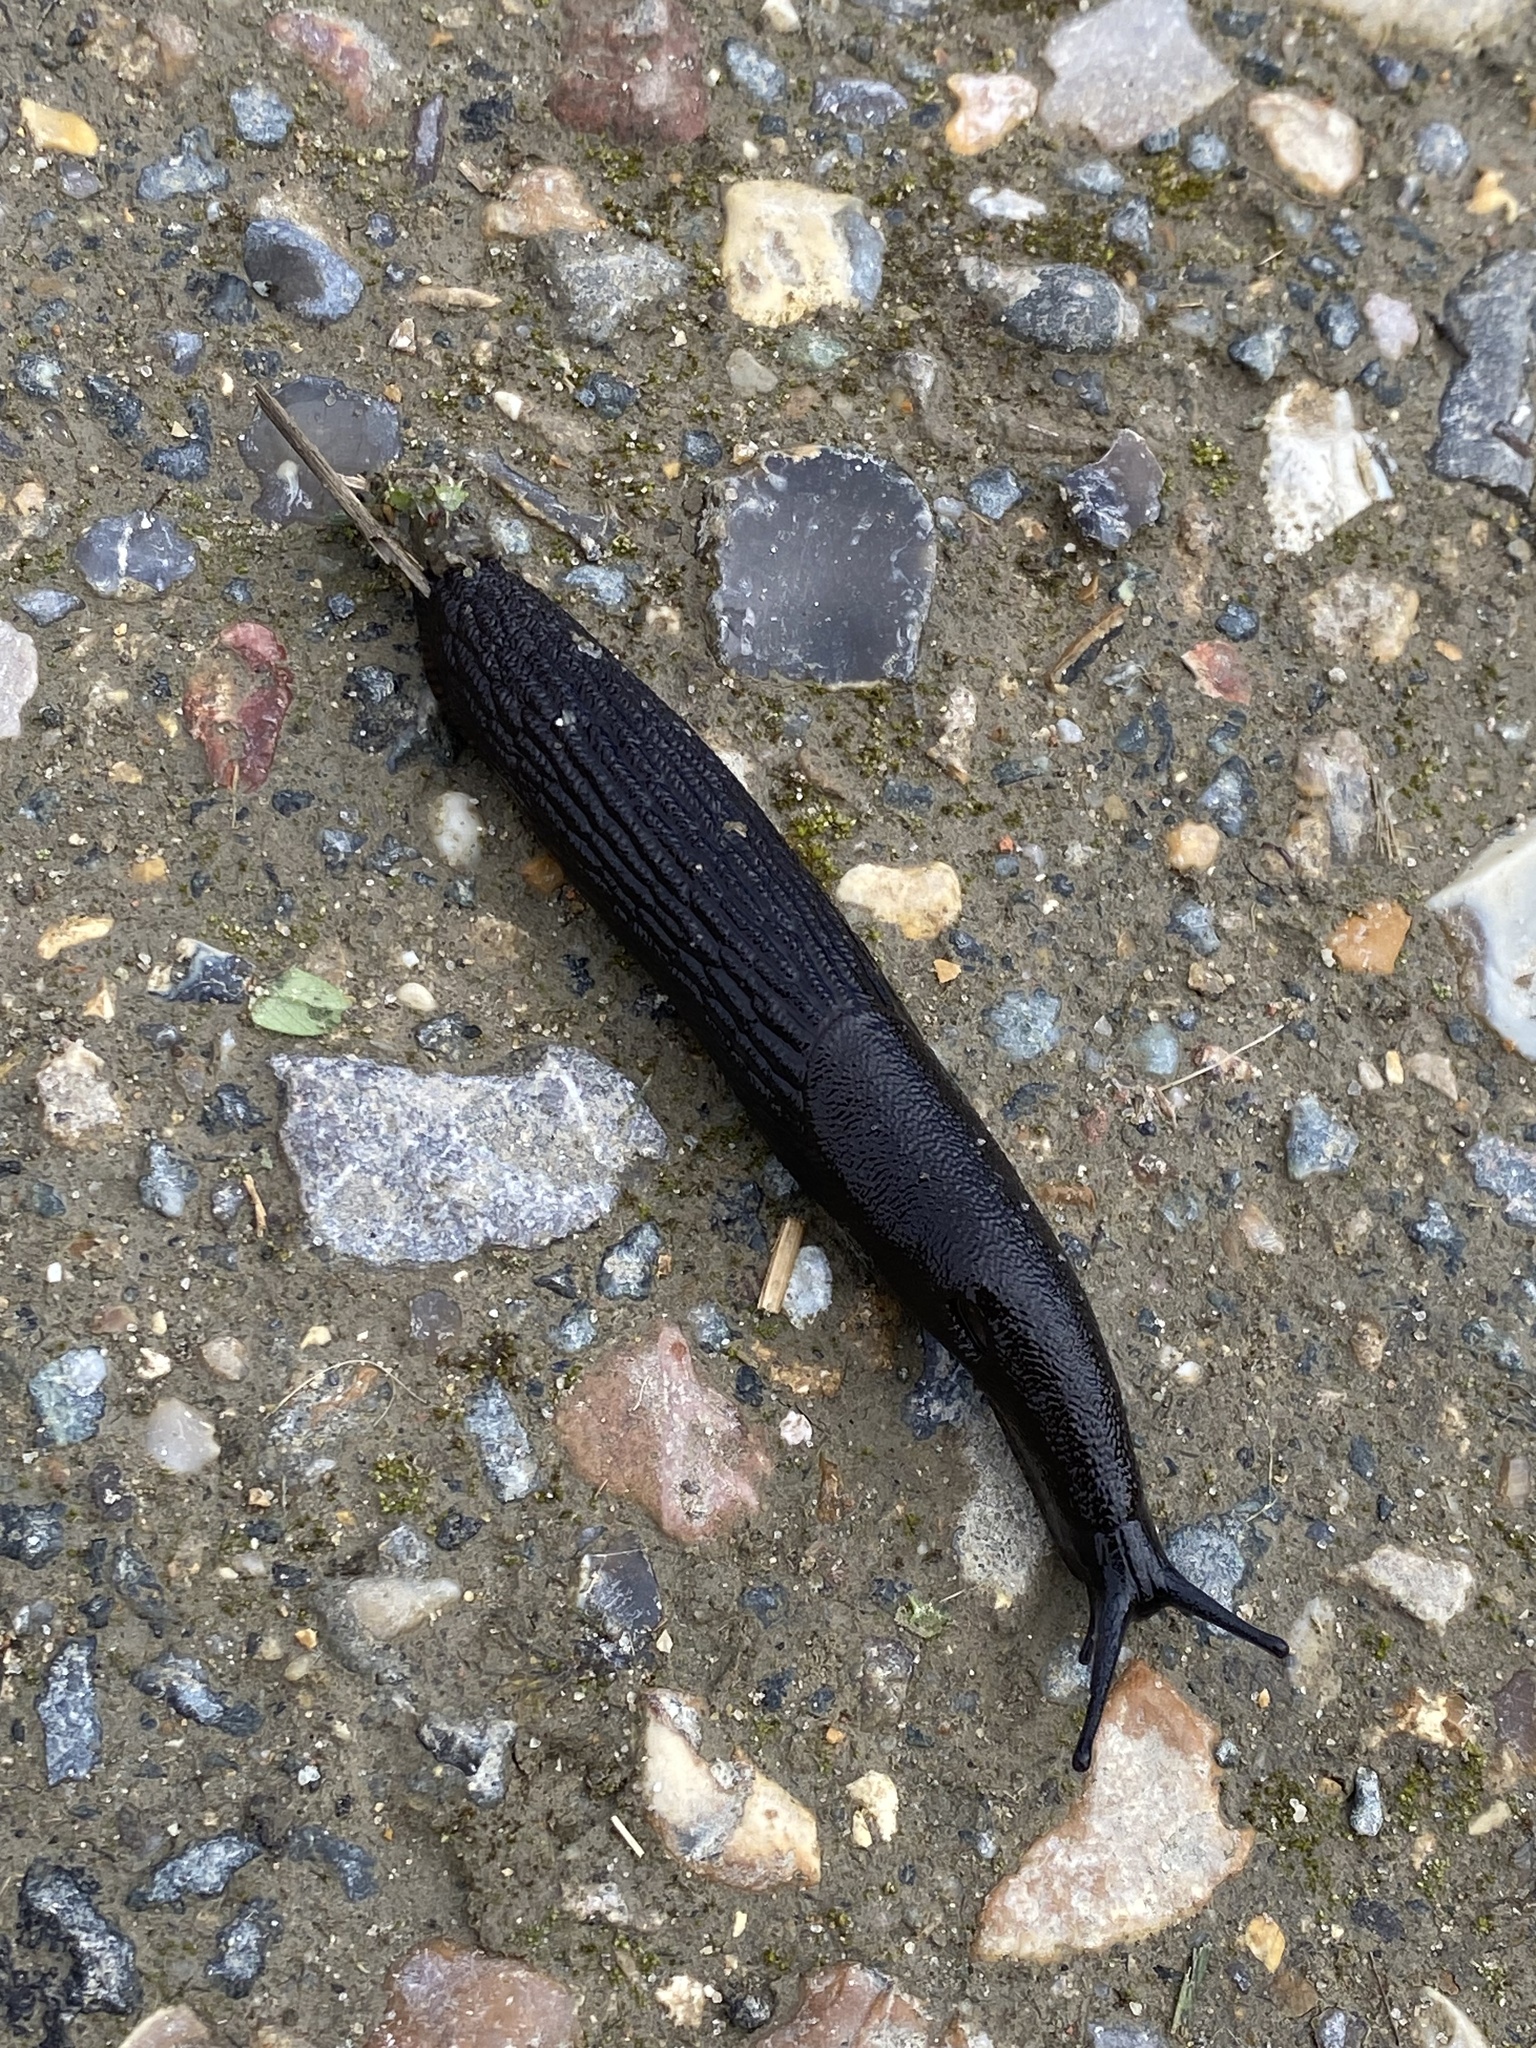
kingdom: Animalia
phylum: Mollusca
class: Gastropoda
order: Stylommatophora
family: Arionidae
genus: Arion
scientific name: Arion ater
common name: Black arion
